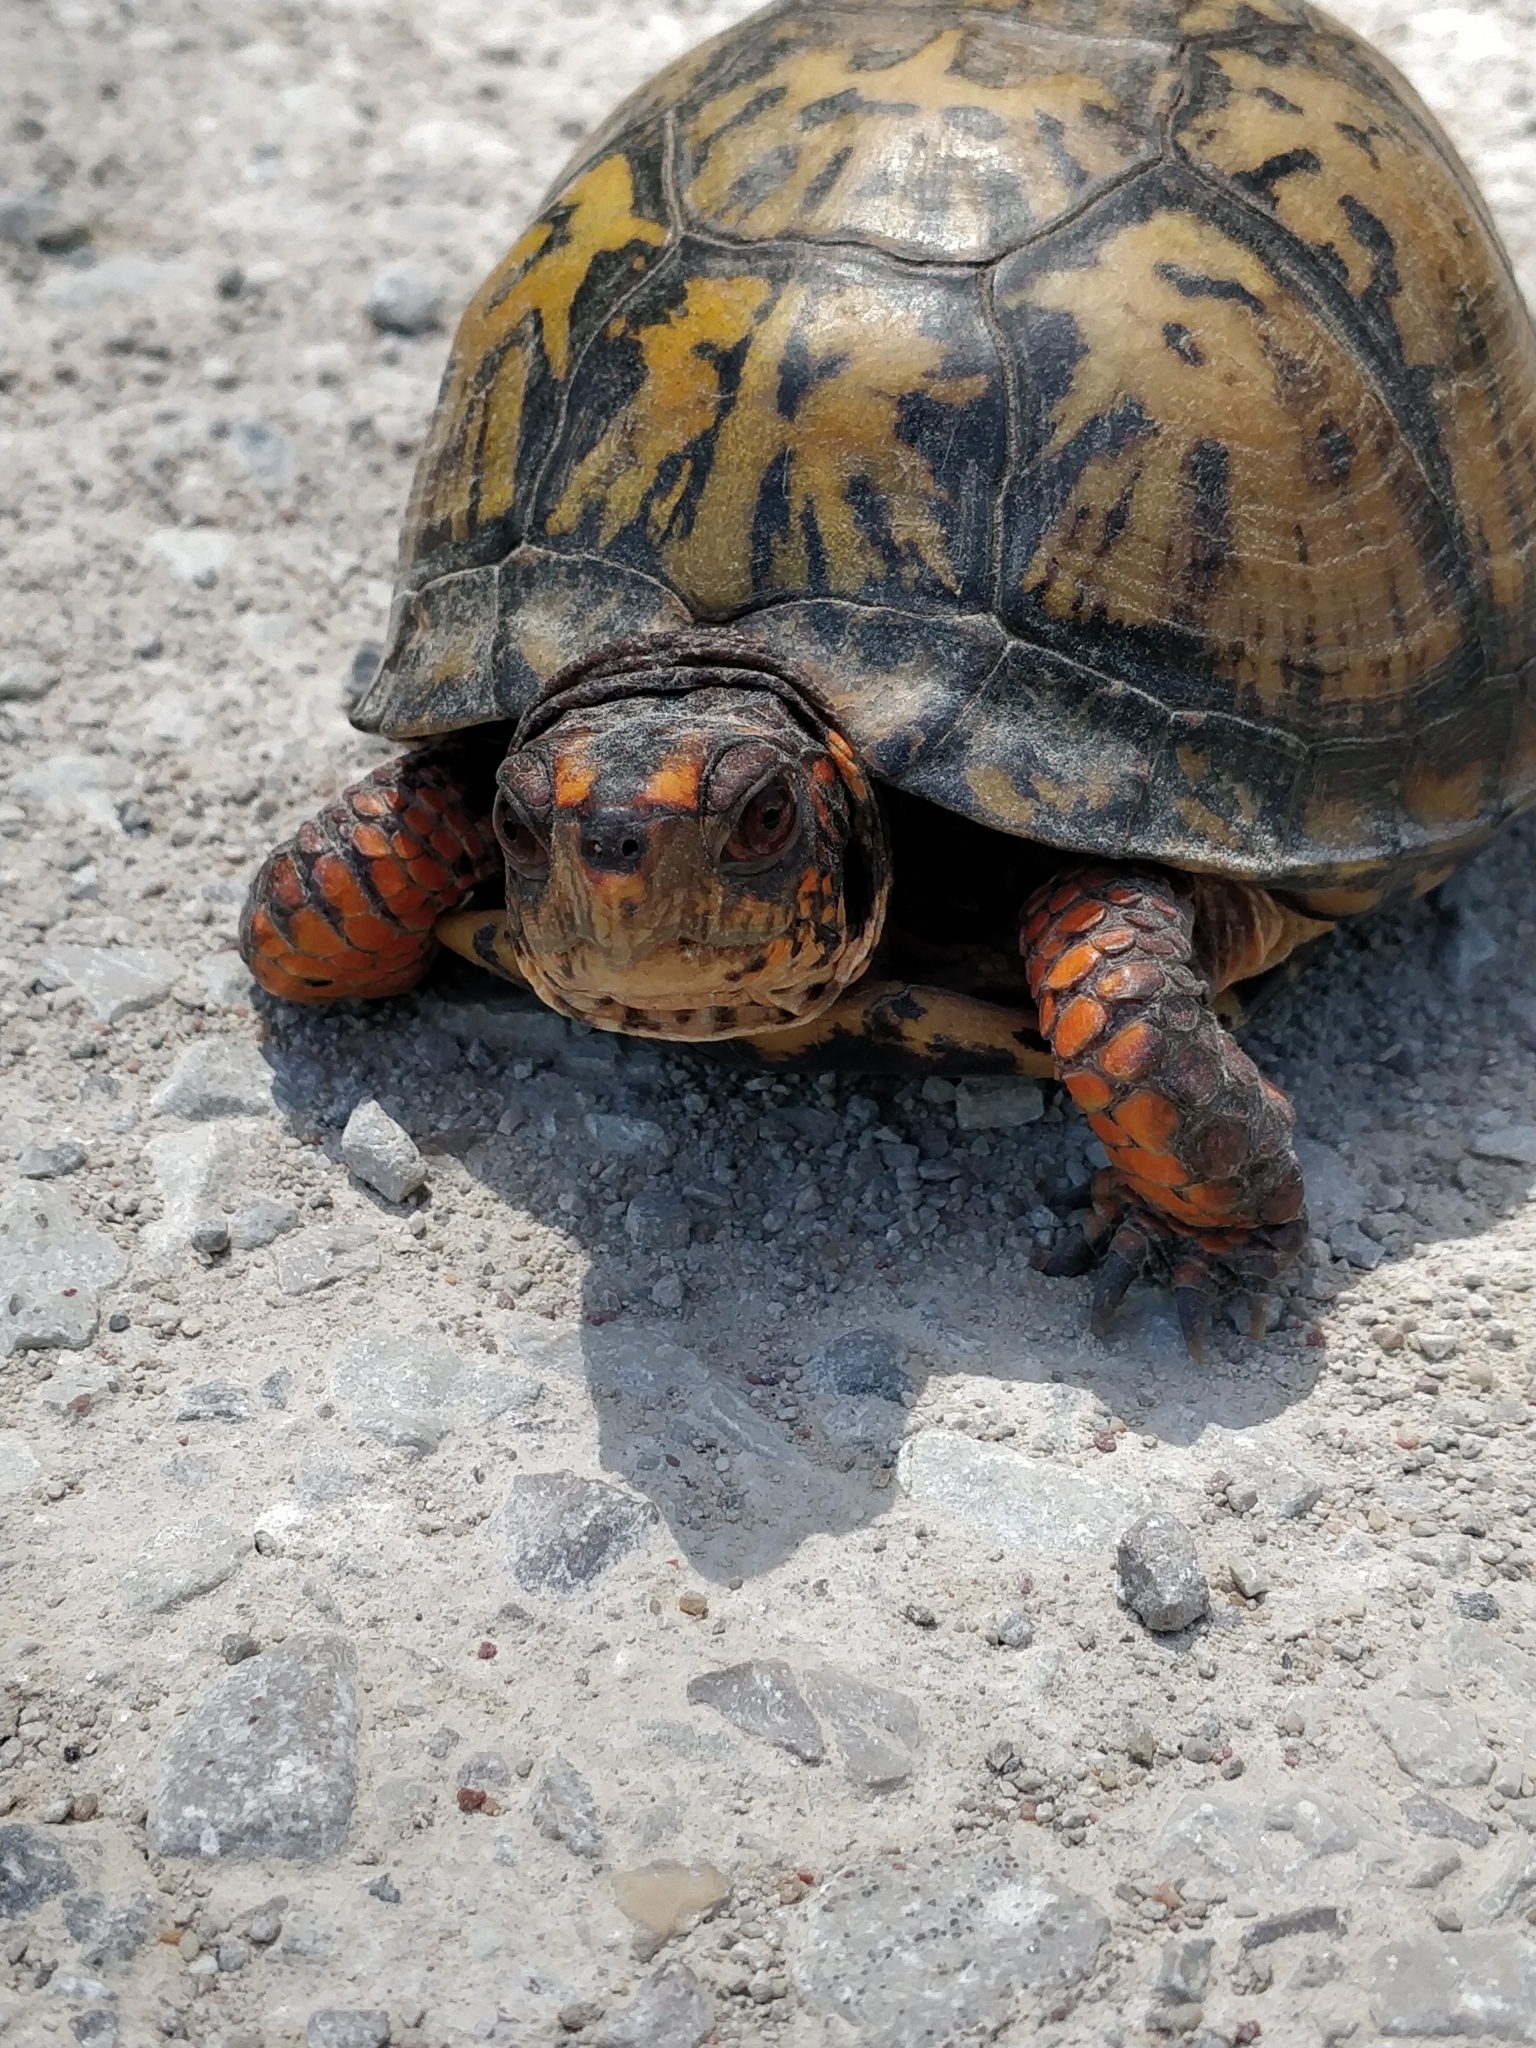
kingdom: Animalia
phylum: Chordata
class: Testudines
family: Emydidae
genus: Terrapene
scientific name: Terrapene carolina
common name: Common box turtle
